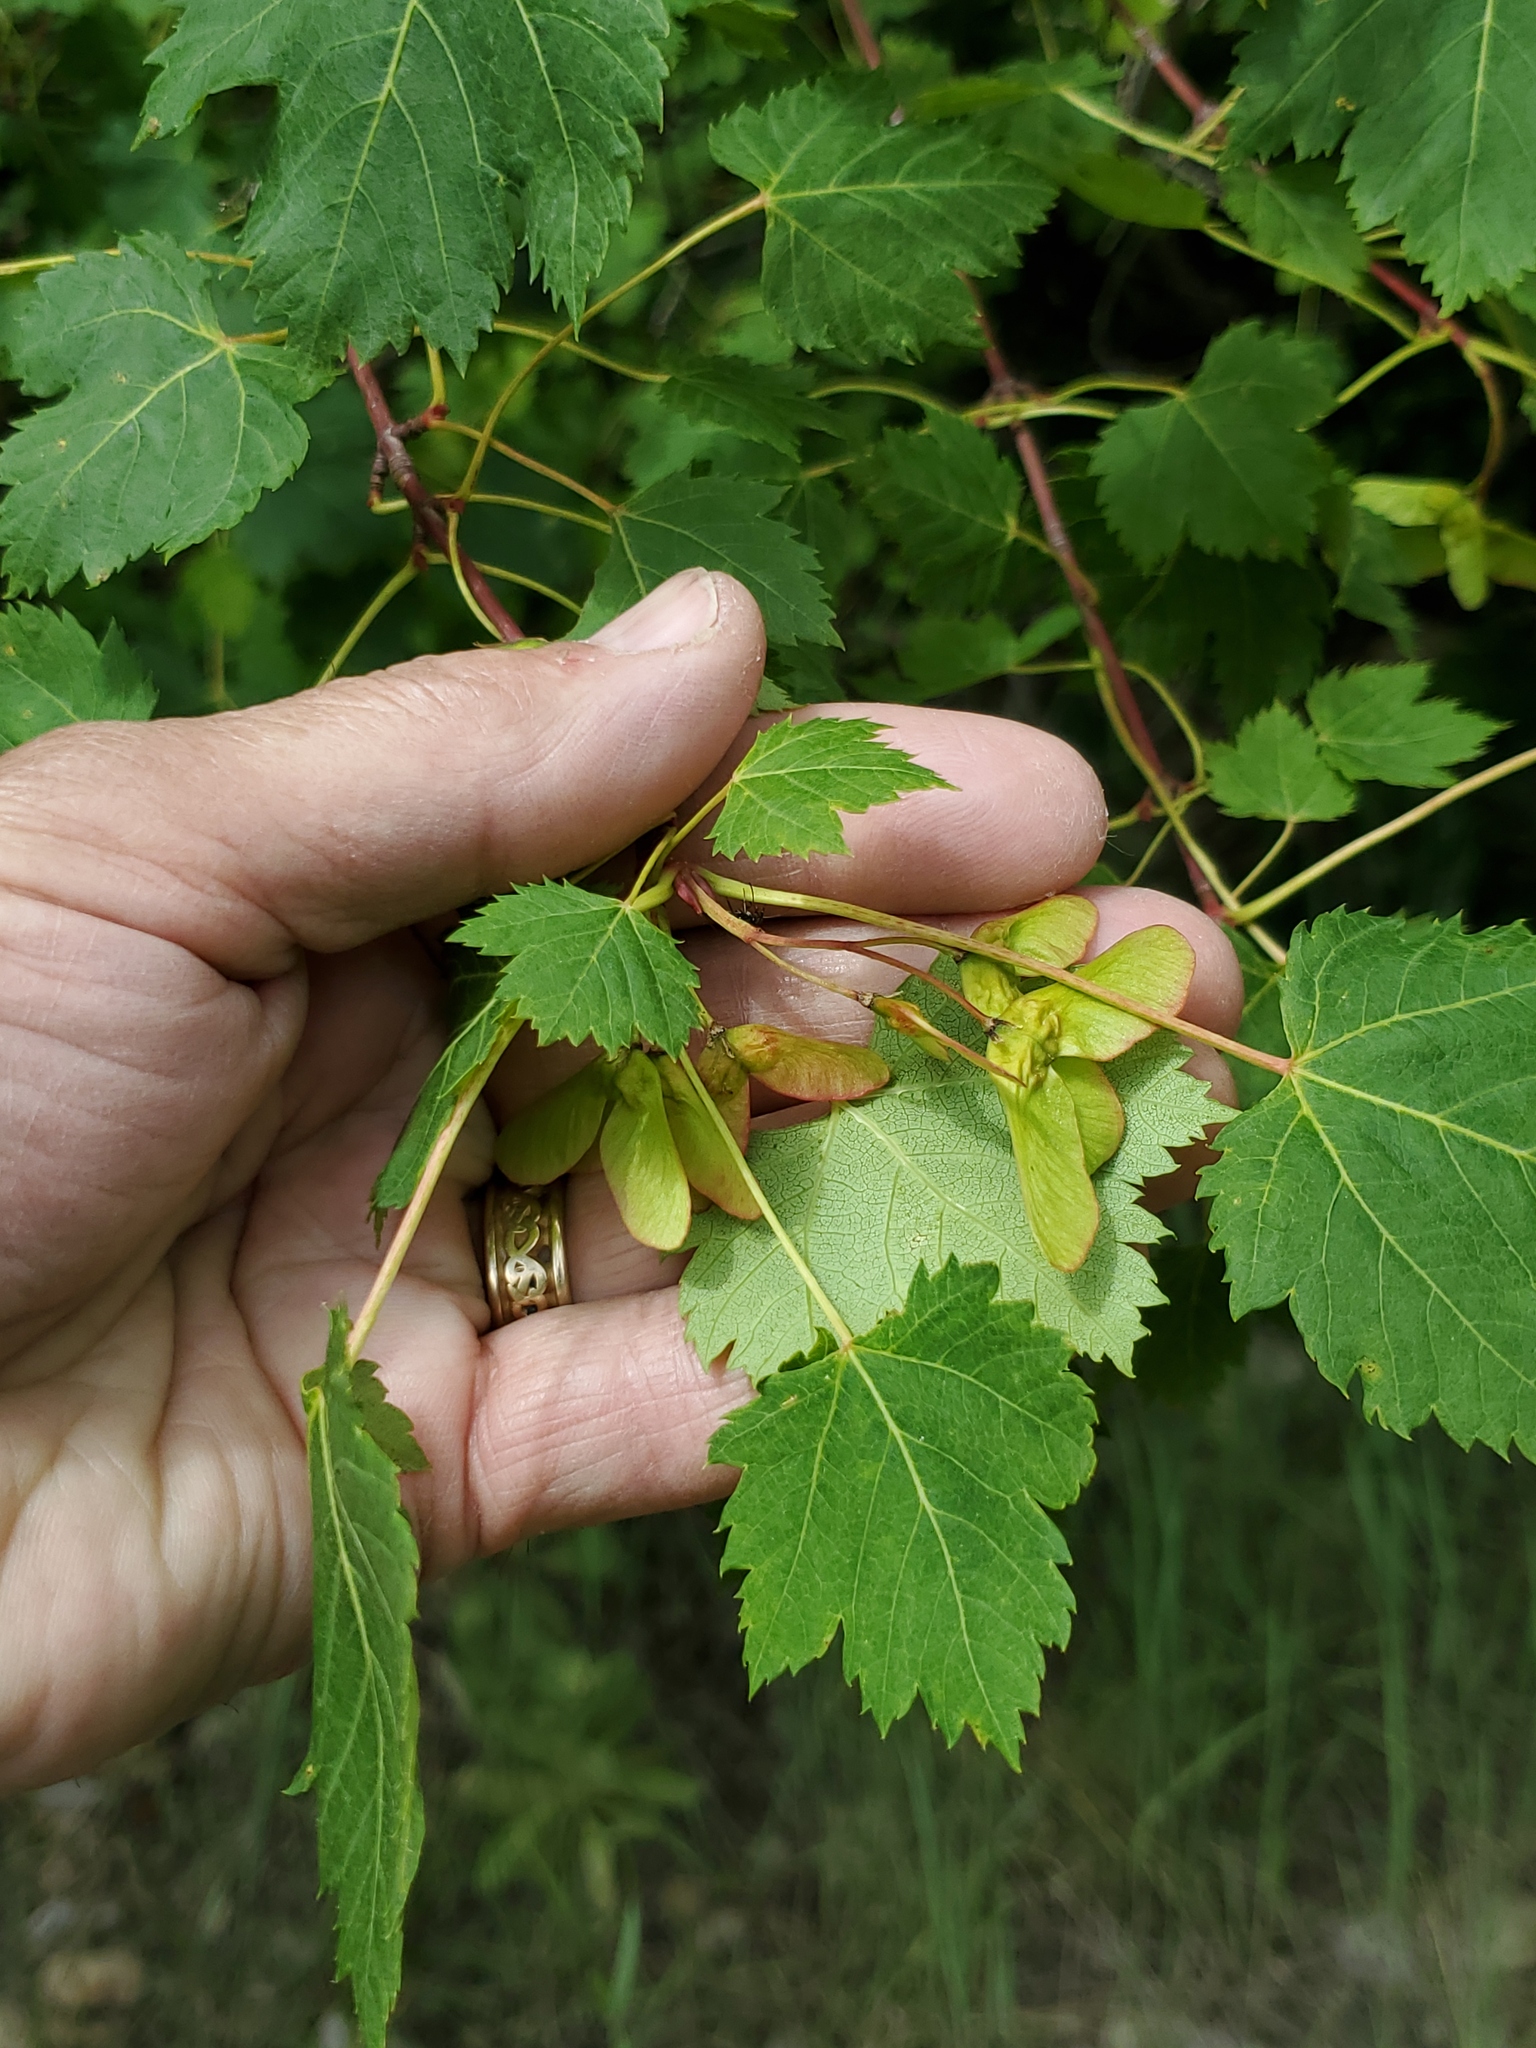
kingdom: Plantae
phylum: Tracheophyta
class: Magnoliopsida
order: Sapindales
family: Sapindaceae
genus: Acer
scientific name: Acer glabrum
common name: Rocky mountain maple
